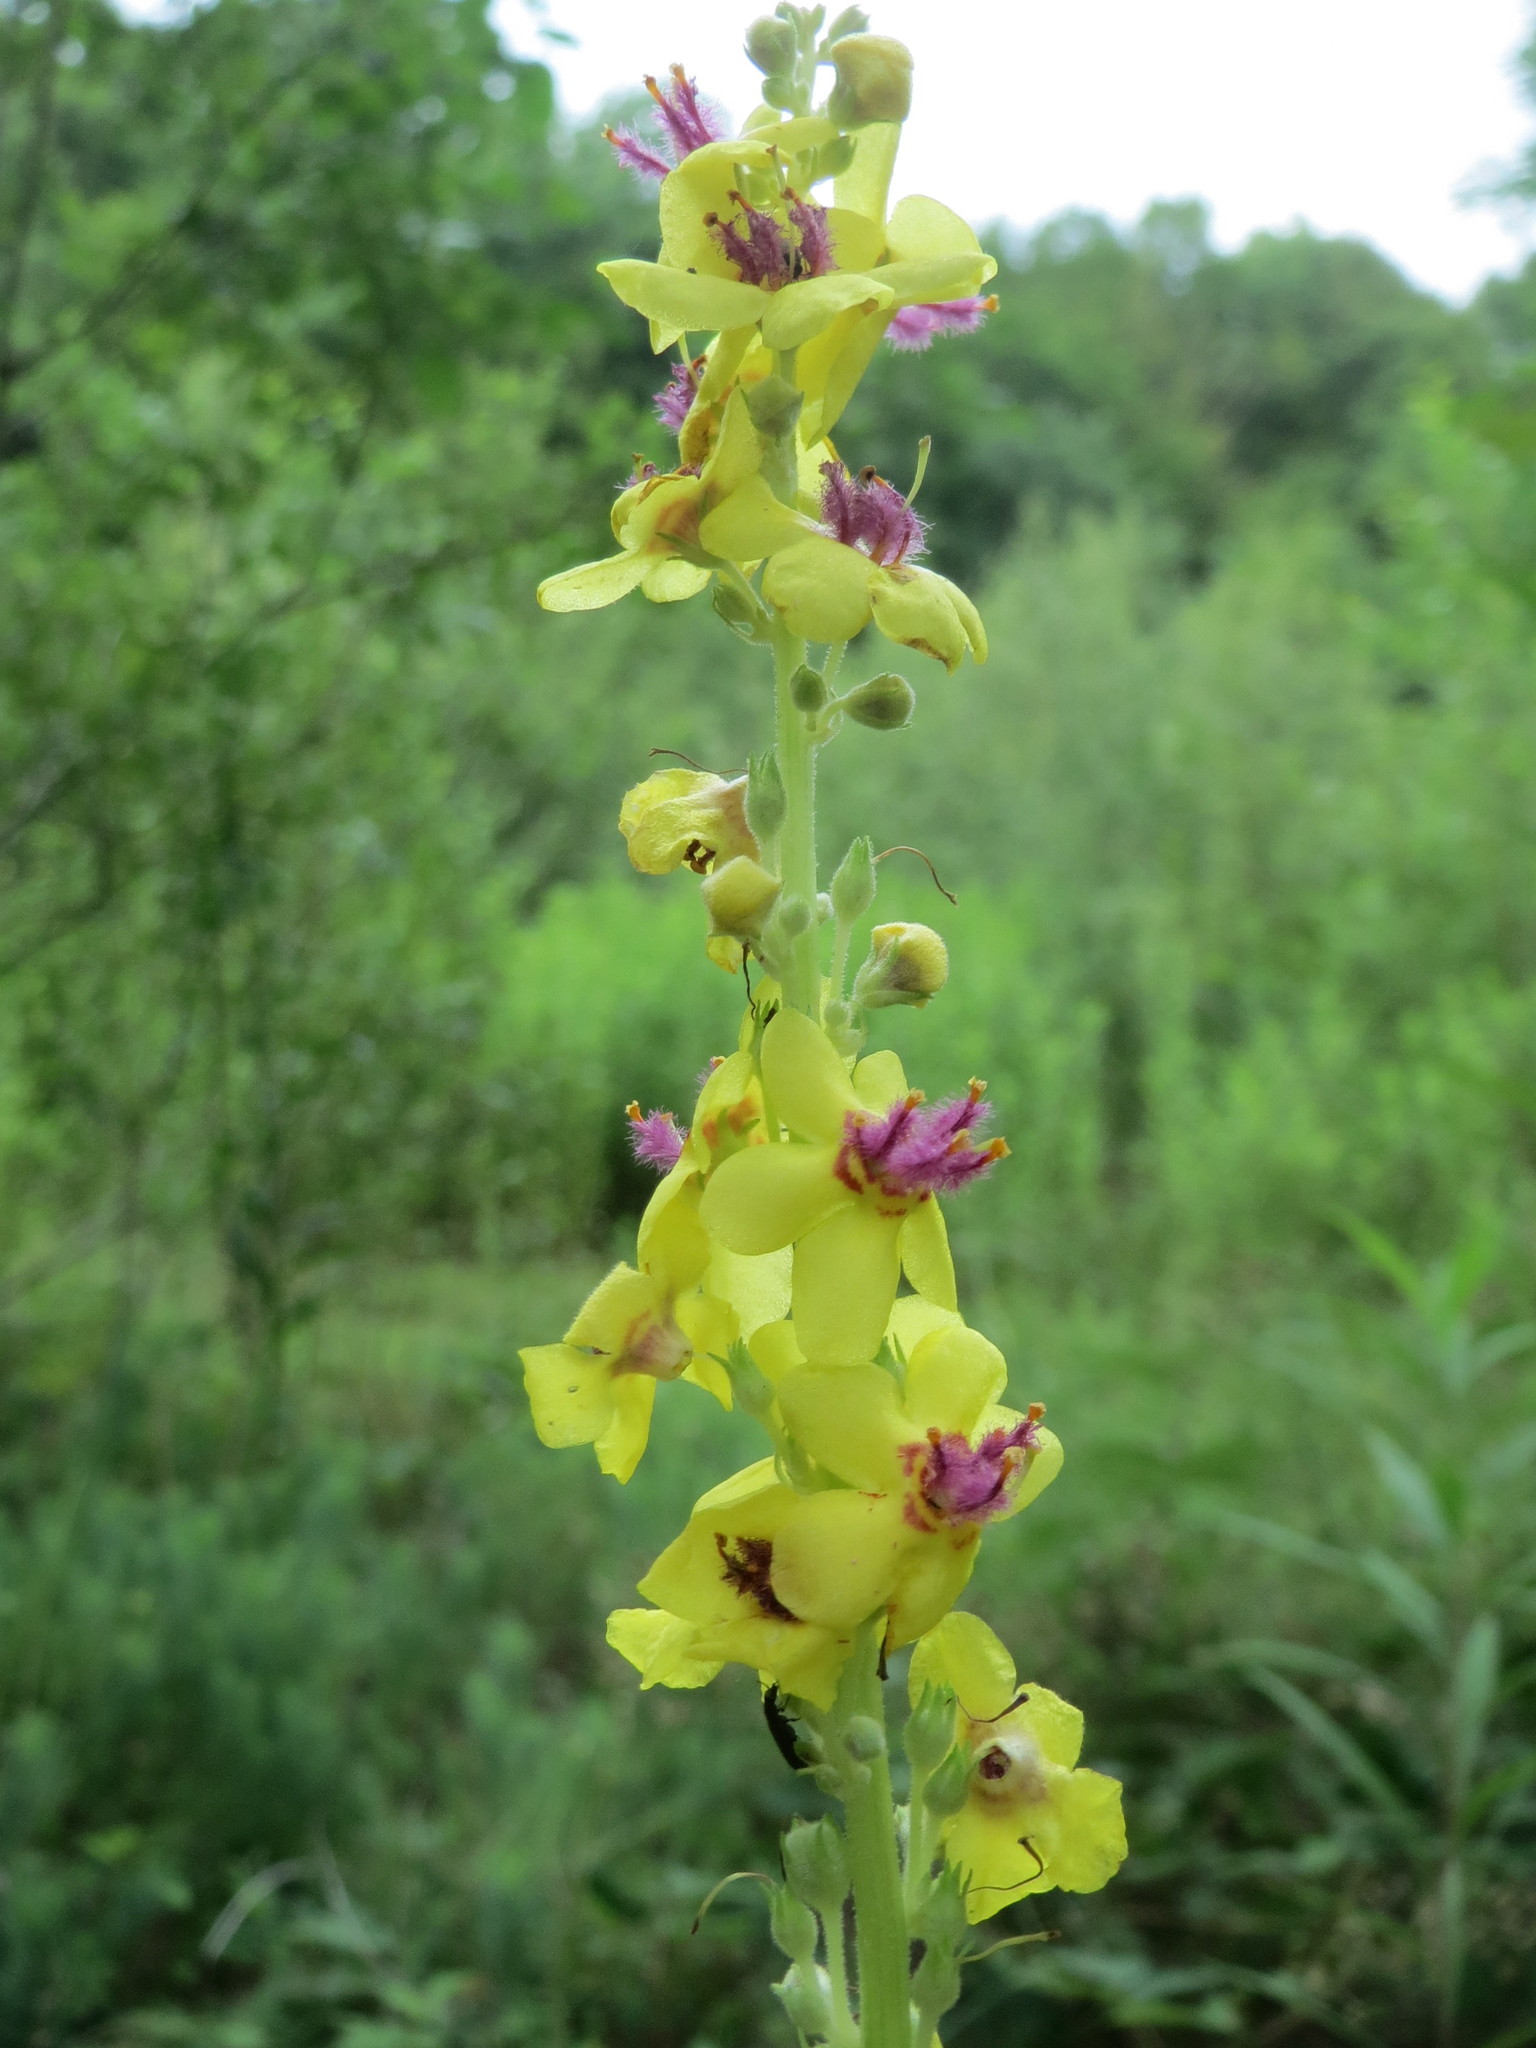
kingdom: Plantae
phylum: Tracheophyta
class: Magnoliopsida
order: Lamiales
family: Scrophulariaceae
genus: Verbascum
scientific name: Verbascum nigrum
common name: Dark mullein
